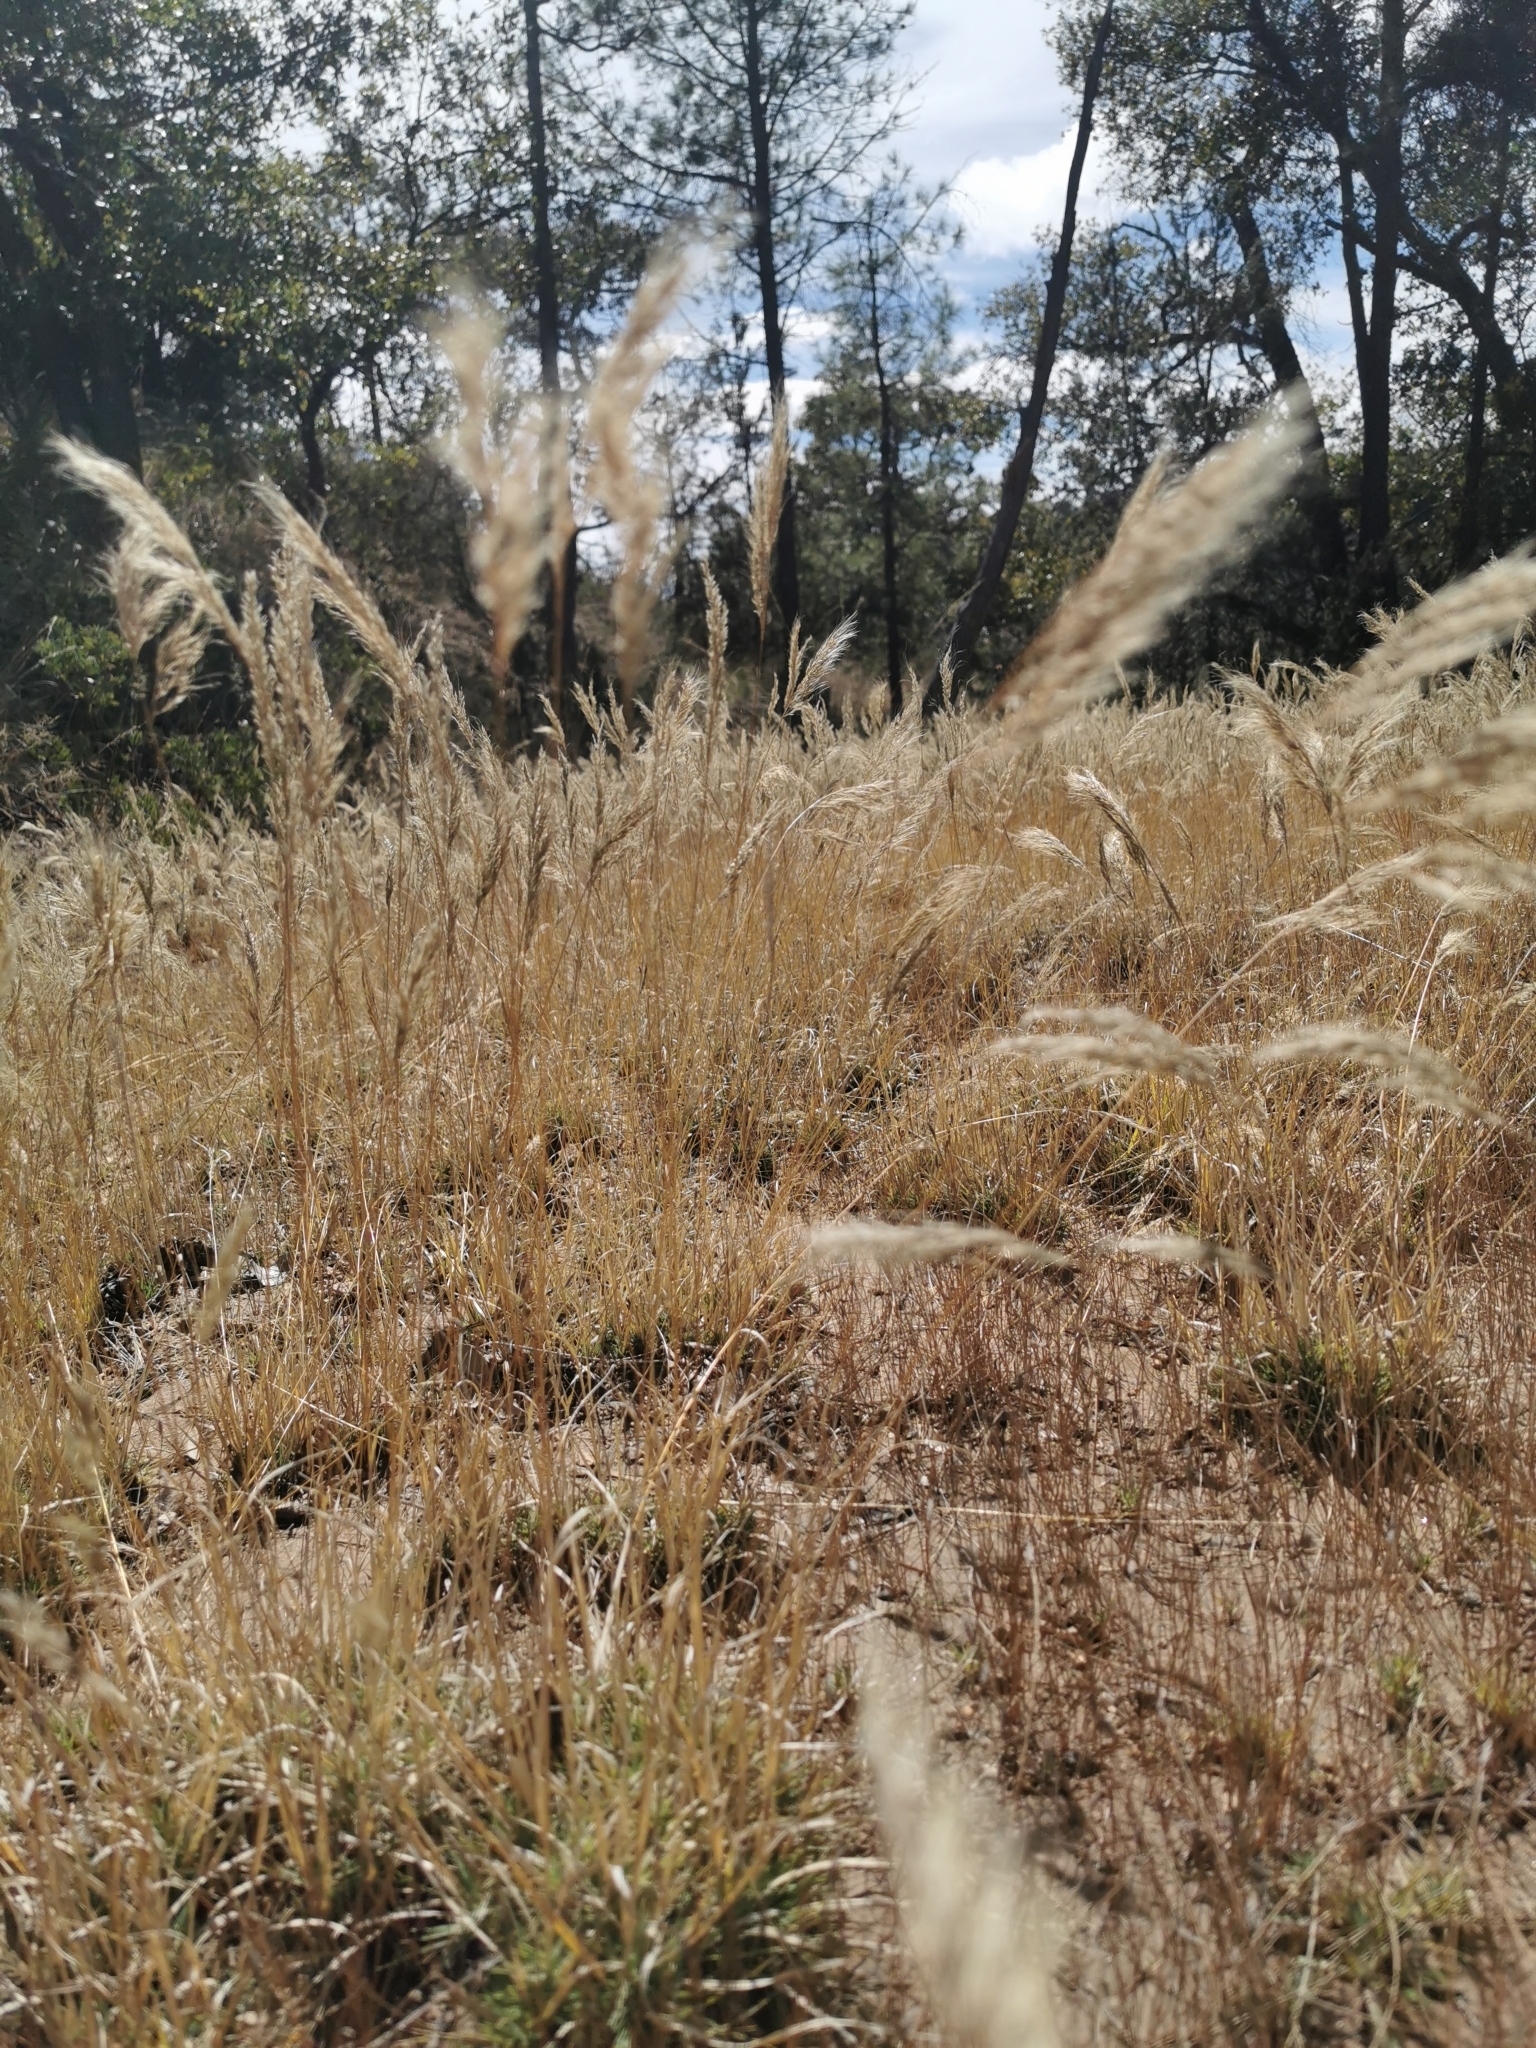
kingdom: Plantae
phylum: Tracheophyta
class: Liliopsida
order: Poales
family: Poaceae
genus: Muhlenbergia
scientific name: Muhlenbergia flaviseta
